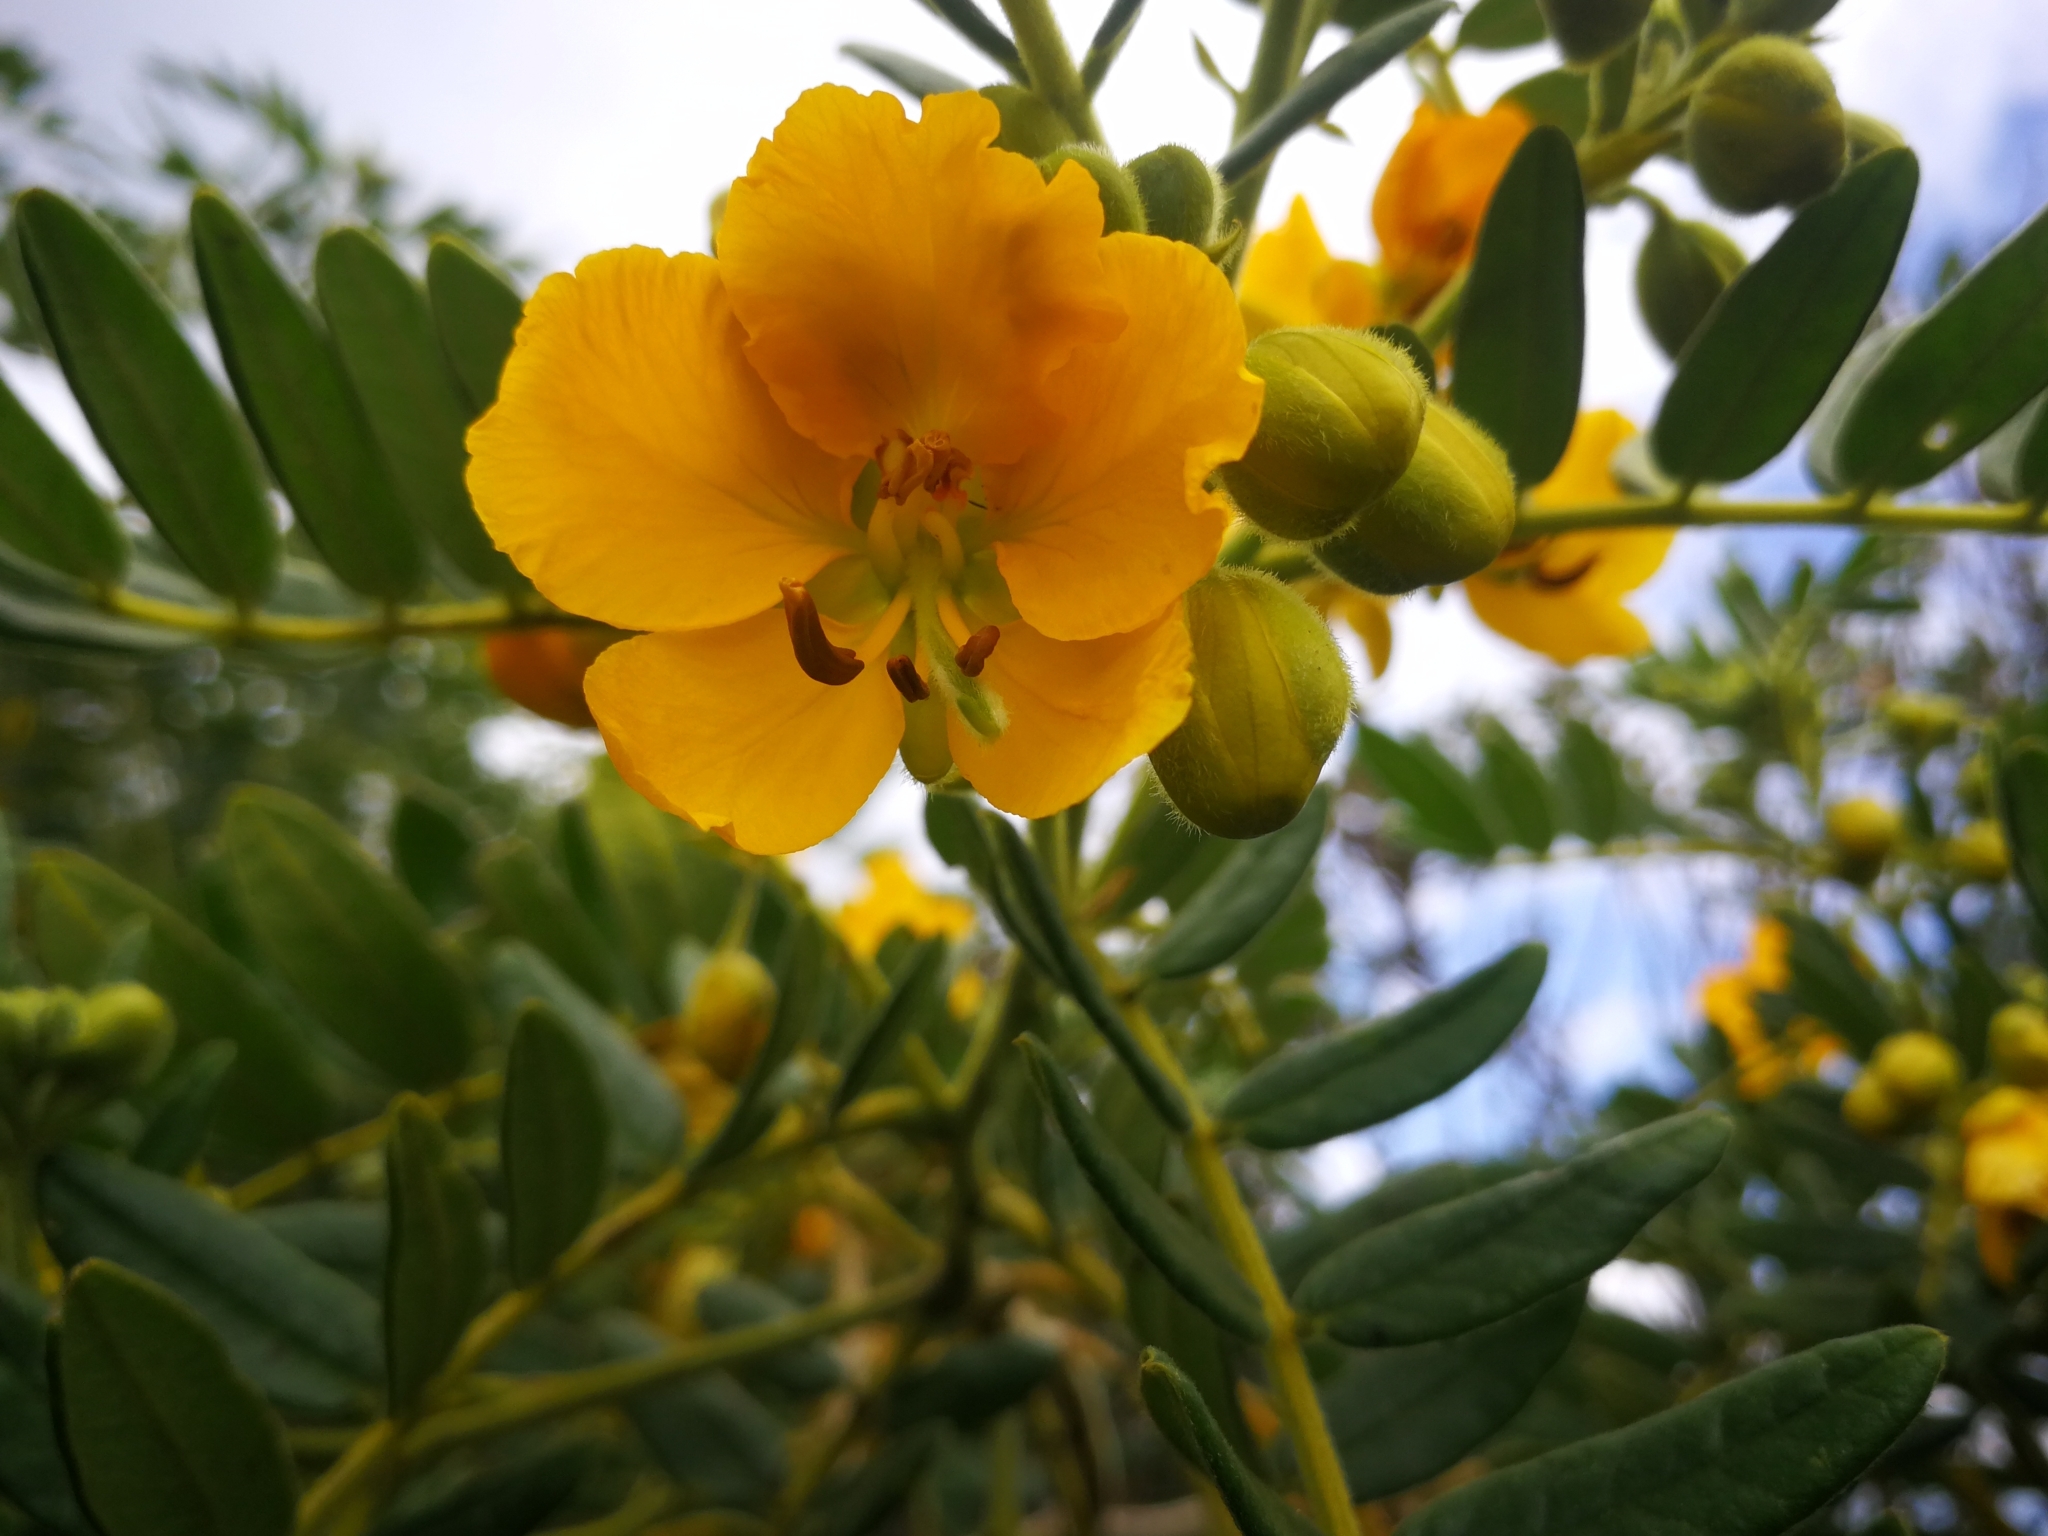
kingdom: Plantae
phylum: Tracheophyta
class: Magnoliopsida
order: Fabales
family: Fabaceae
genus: Senna
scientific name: Senna multiglandulosa
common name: Glandular senna
